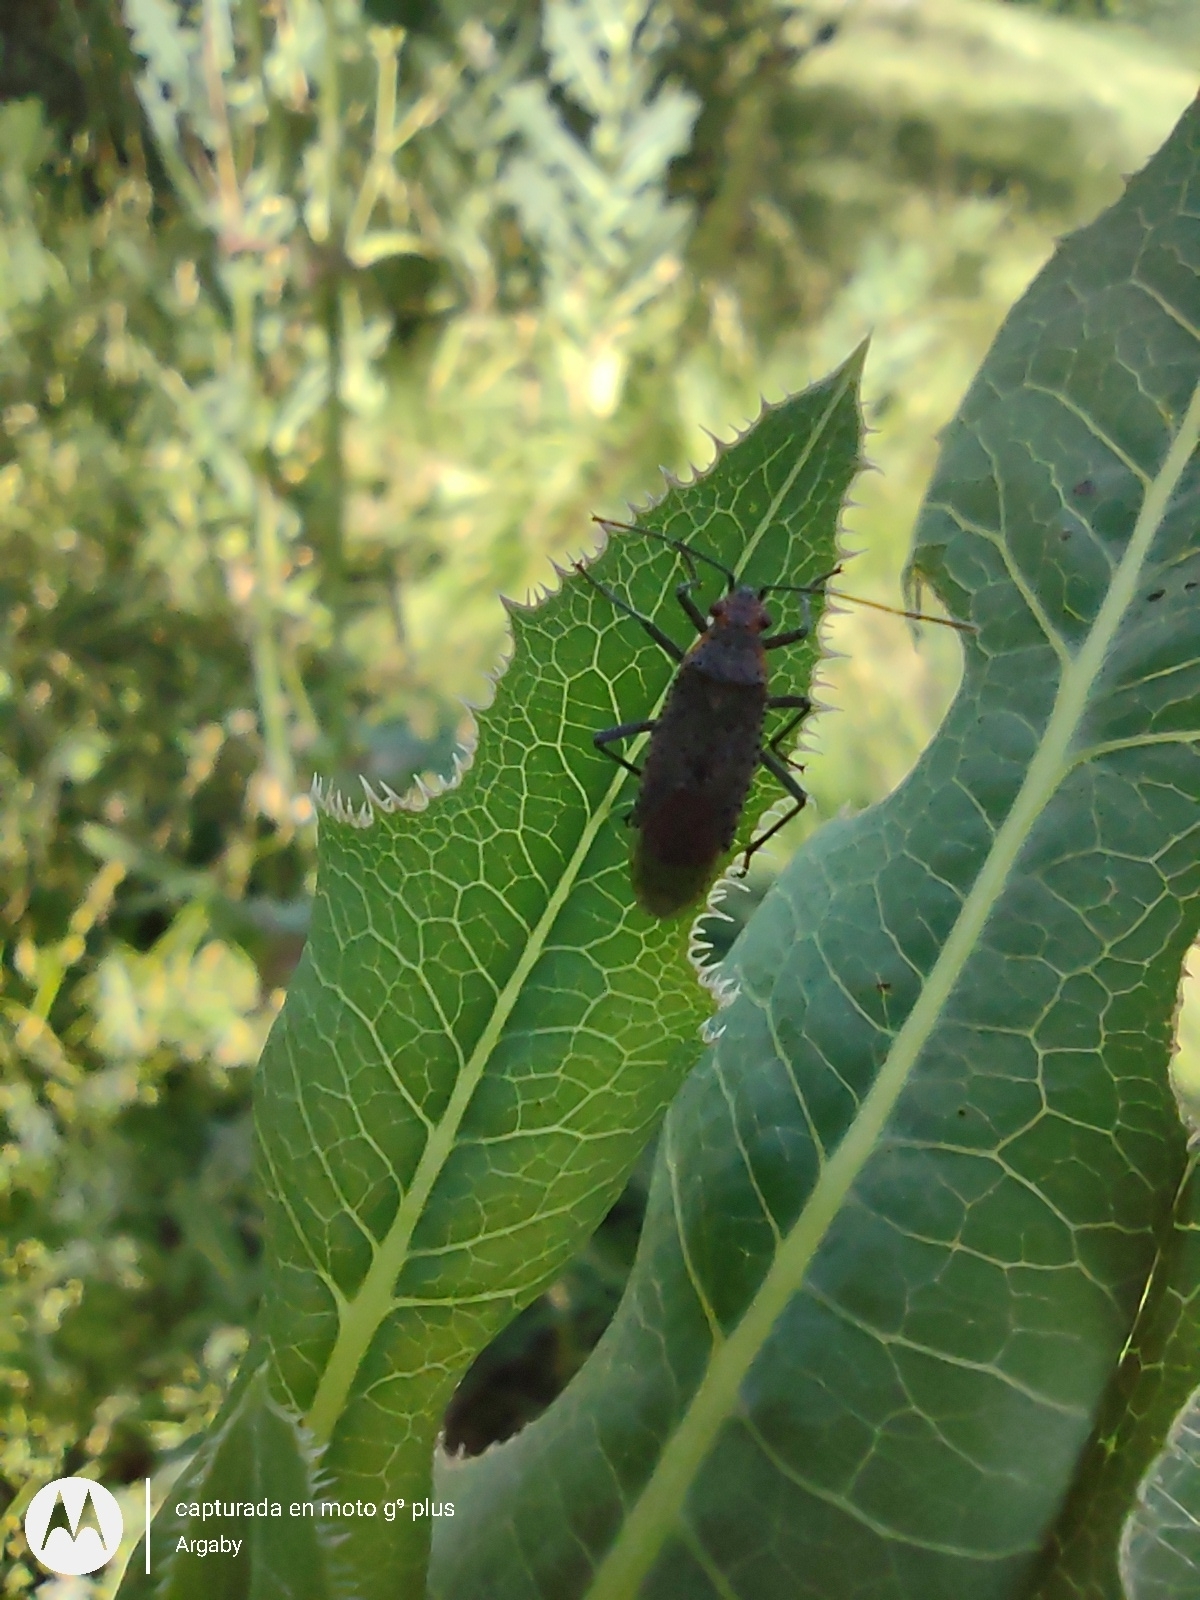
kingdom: Animalia
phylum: Arthropoda
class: Insecta
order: Hemiptera
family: Rhopalidae
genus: Jadera
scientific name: Jadera coturnix
